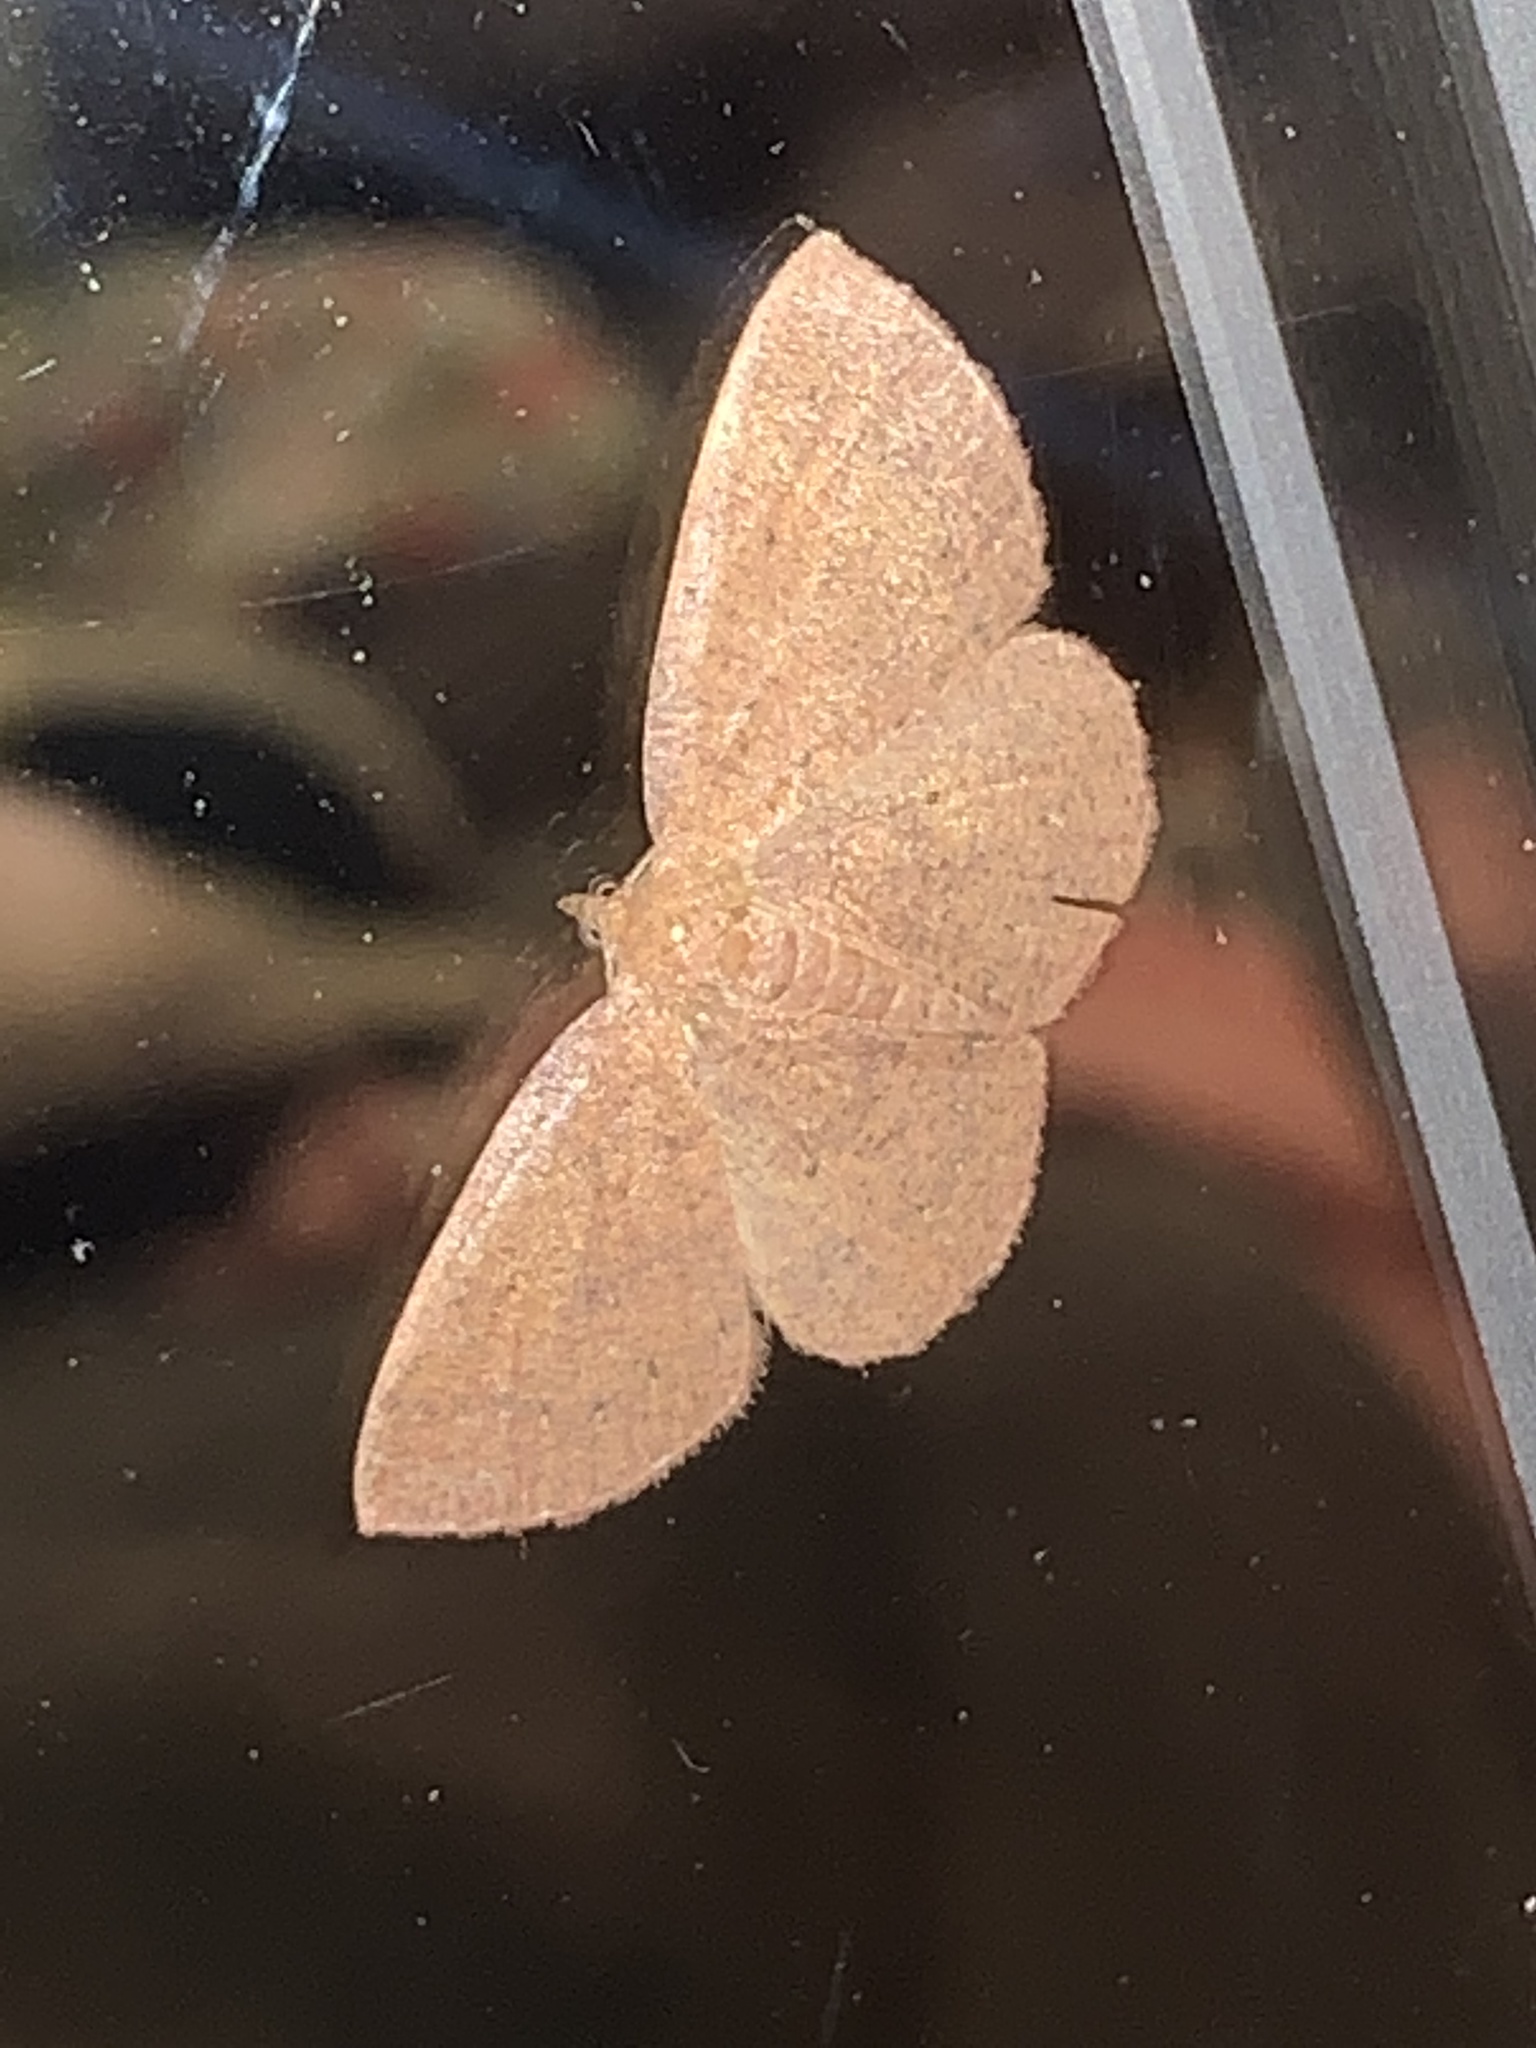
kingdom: Animalia
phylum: Arthropoda
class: Insecta
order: Lepidoptera
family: Geometridae
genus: Ilexia
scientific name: Ilexia intractata
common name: Black-dotted ruddy moth
